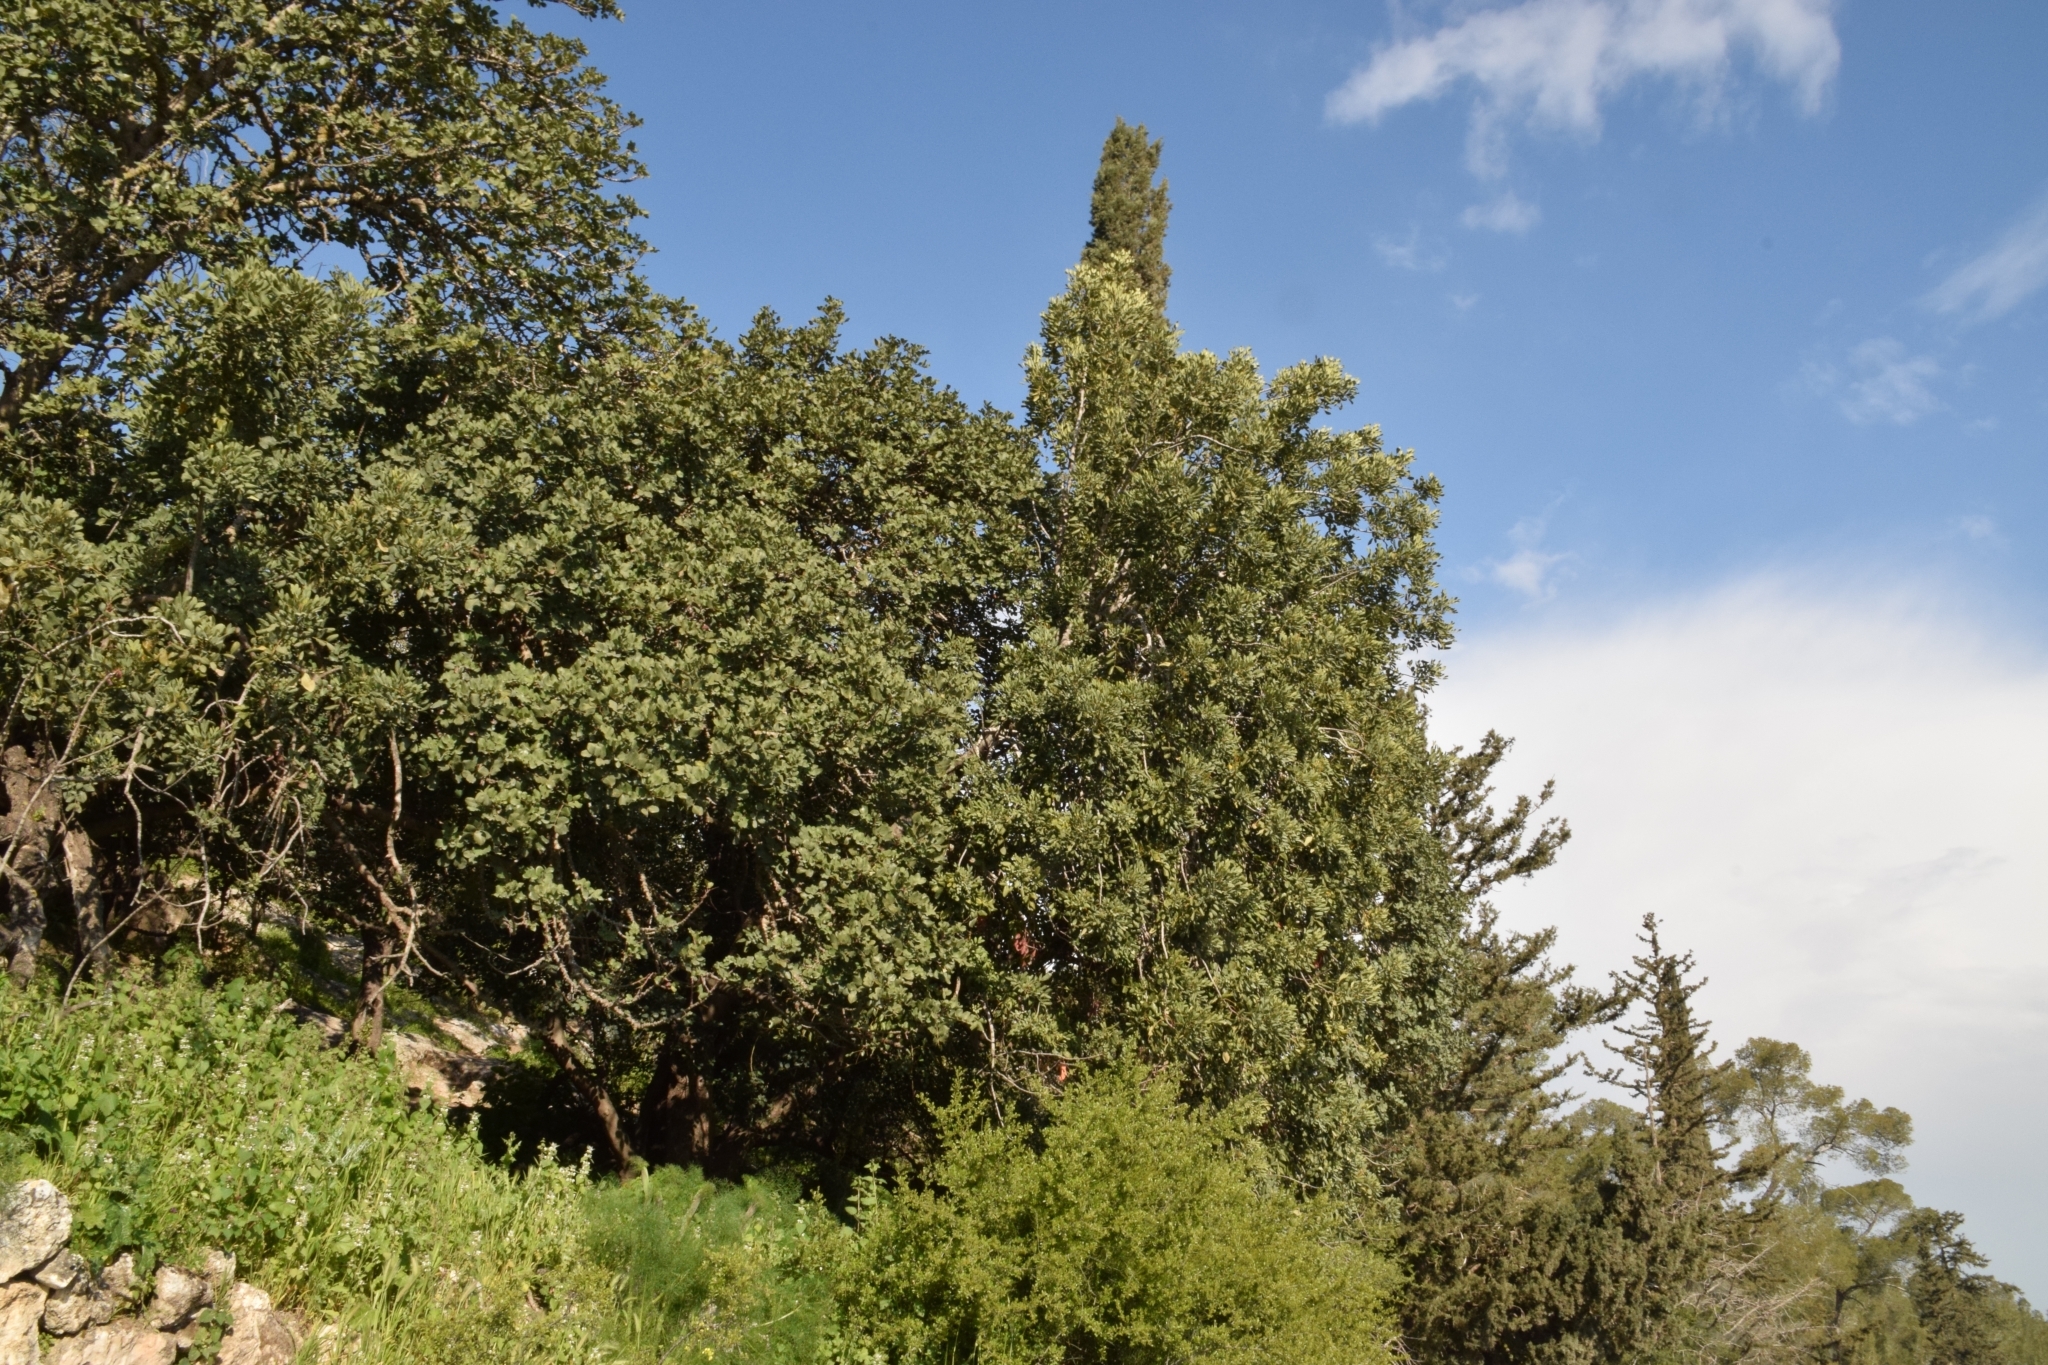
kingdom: Plantae
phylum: Tracheophyta
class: Magnoliopsida
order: Fabales
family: Fabaceae
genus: Ceratonia
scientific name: Ceratonia siliqua
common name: Carob
